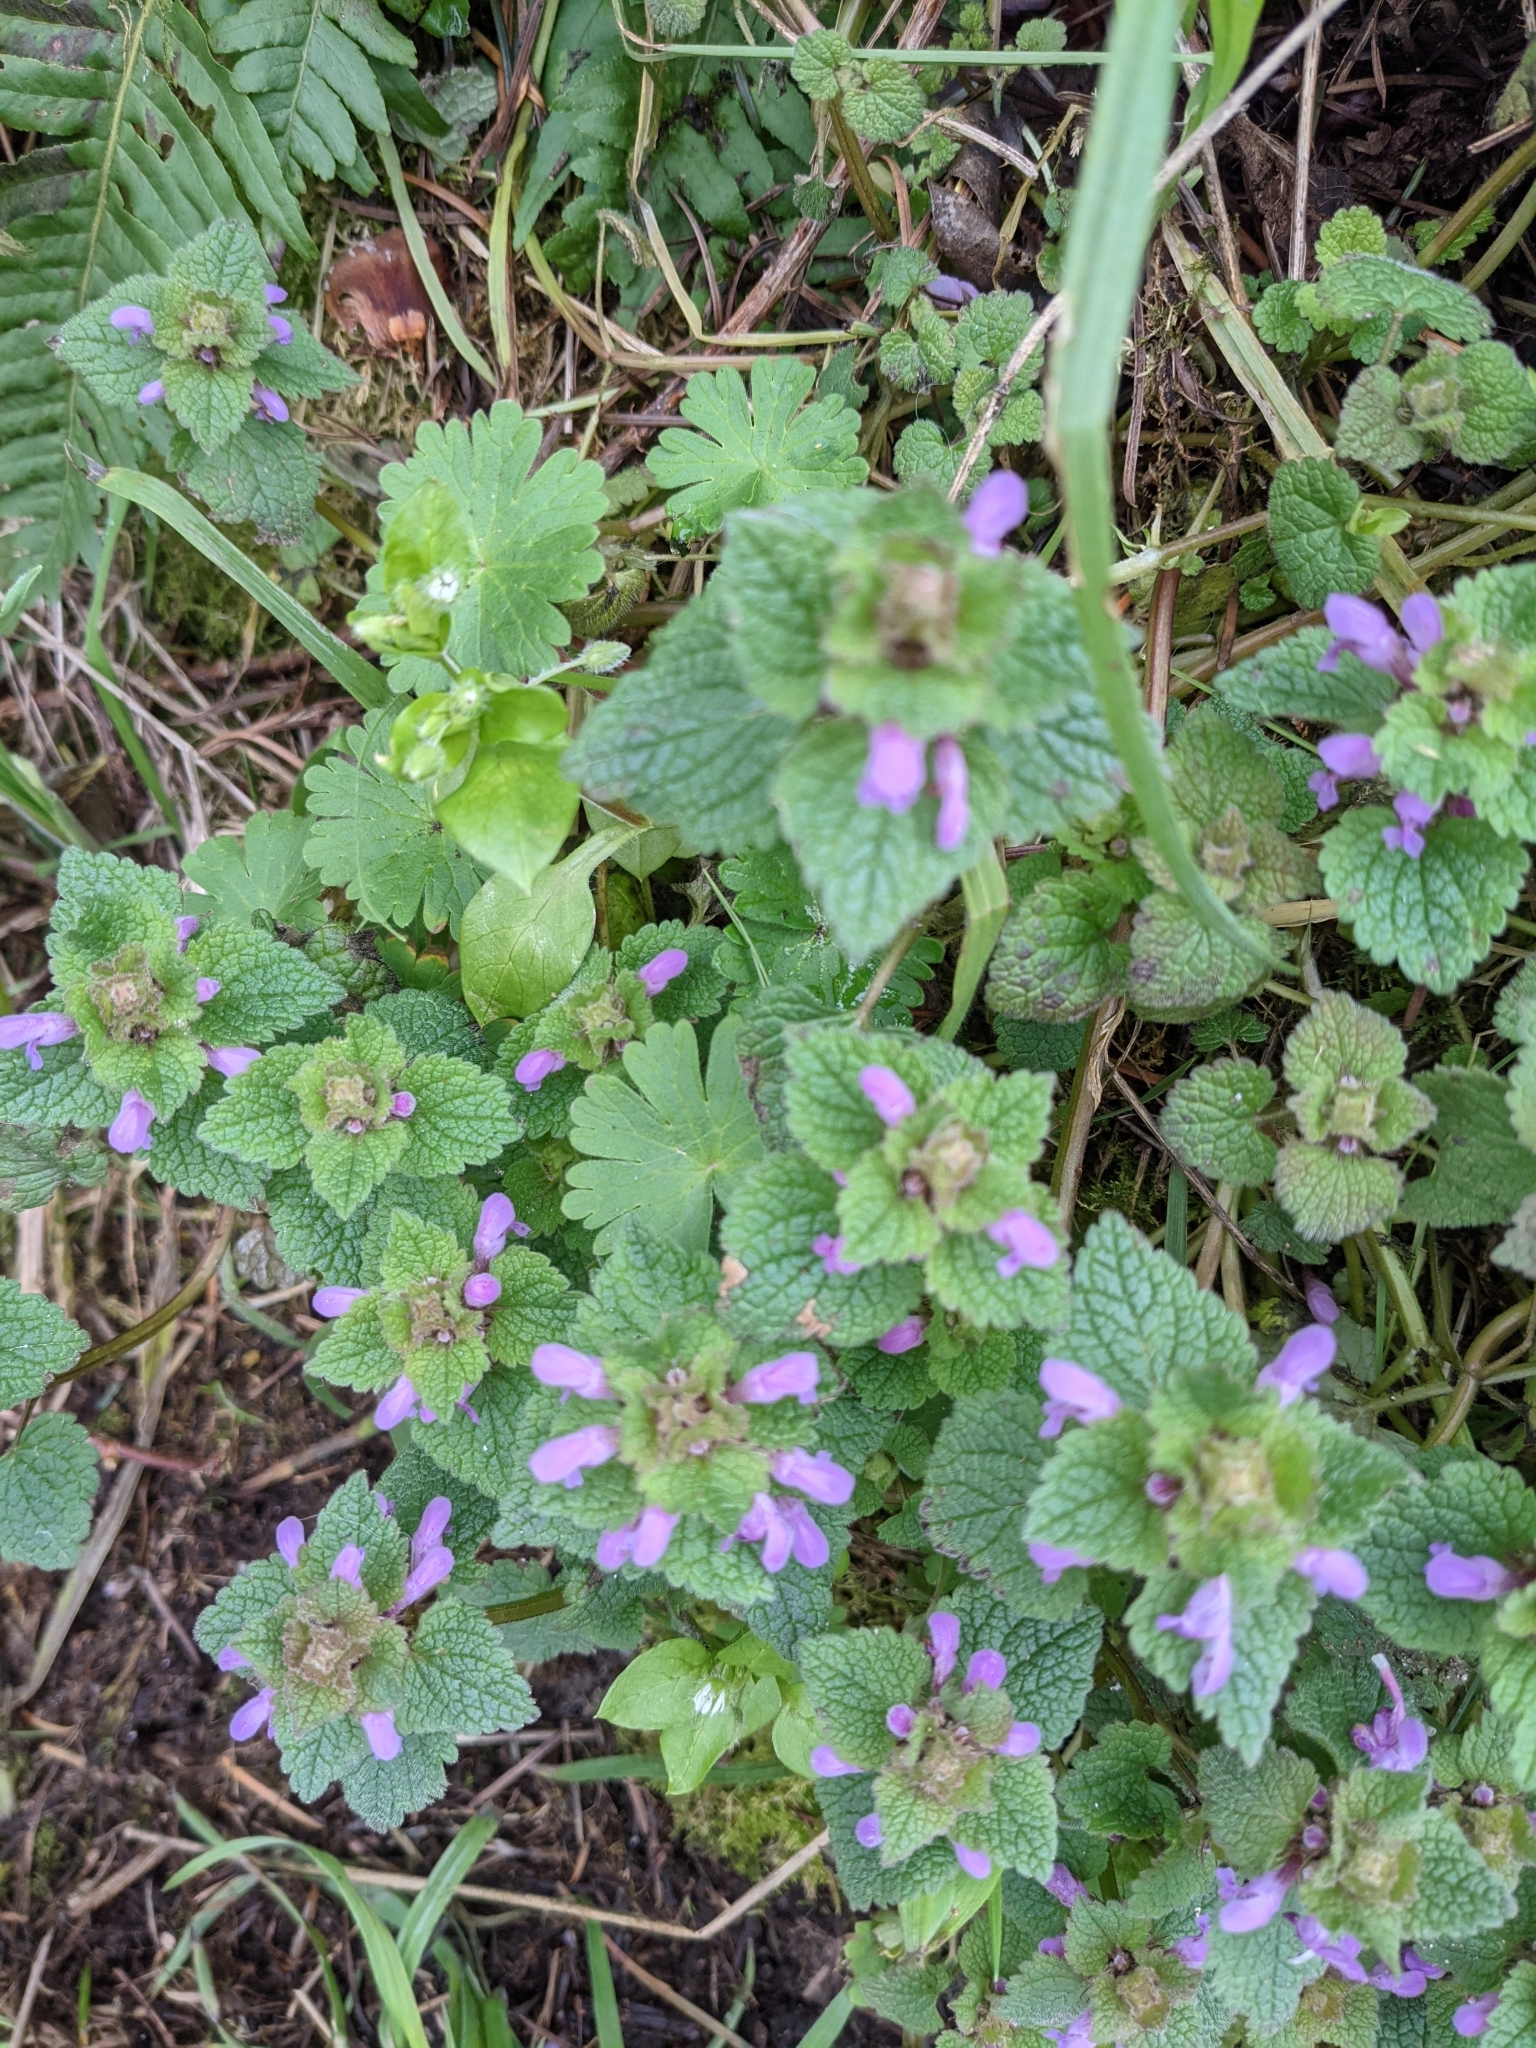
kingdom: Plantae
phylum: Tracheophyta
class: Magnoliopsida
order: Lamiales
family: Lamiaceae
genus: Lamium
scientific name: Lamium purpureum
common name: Red dead-nettle
